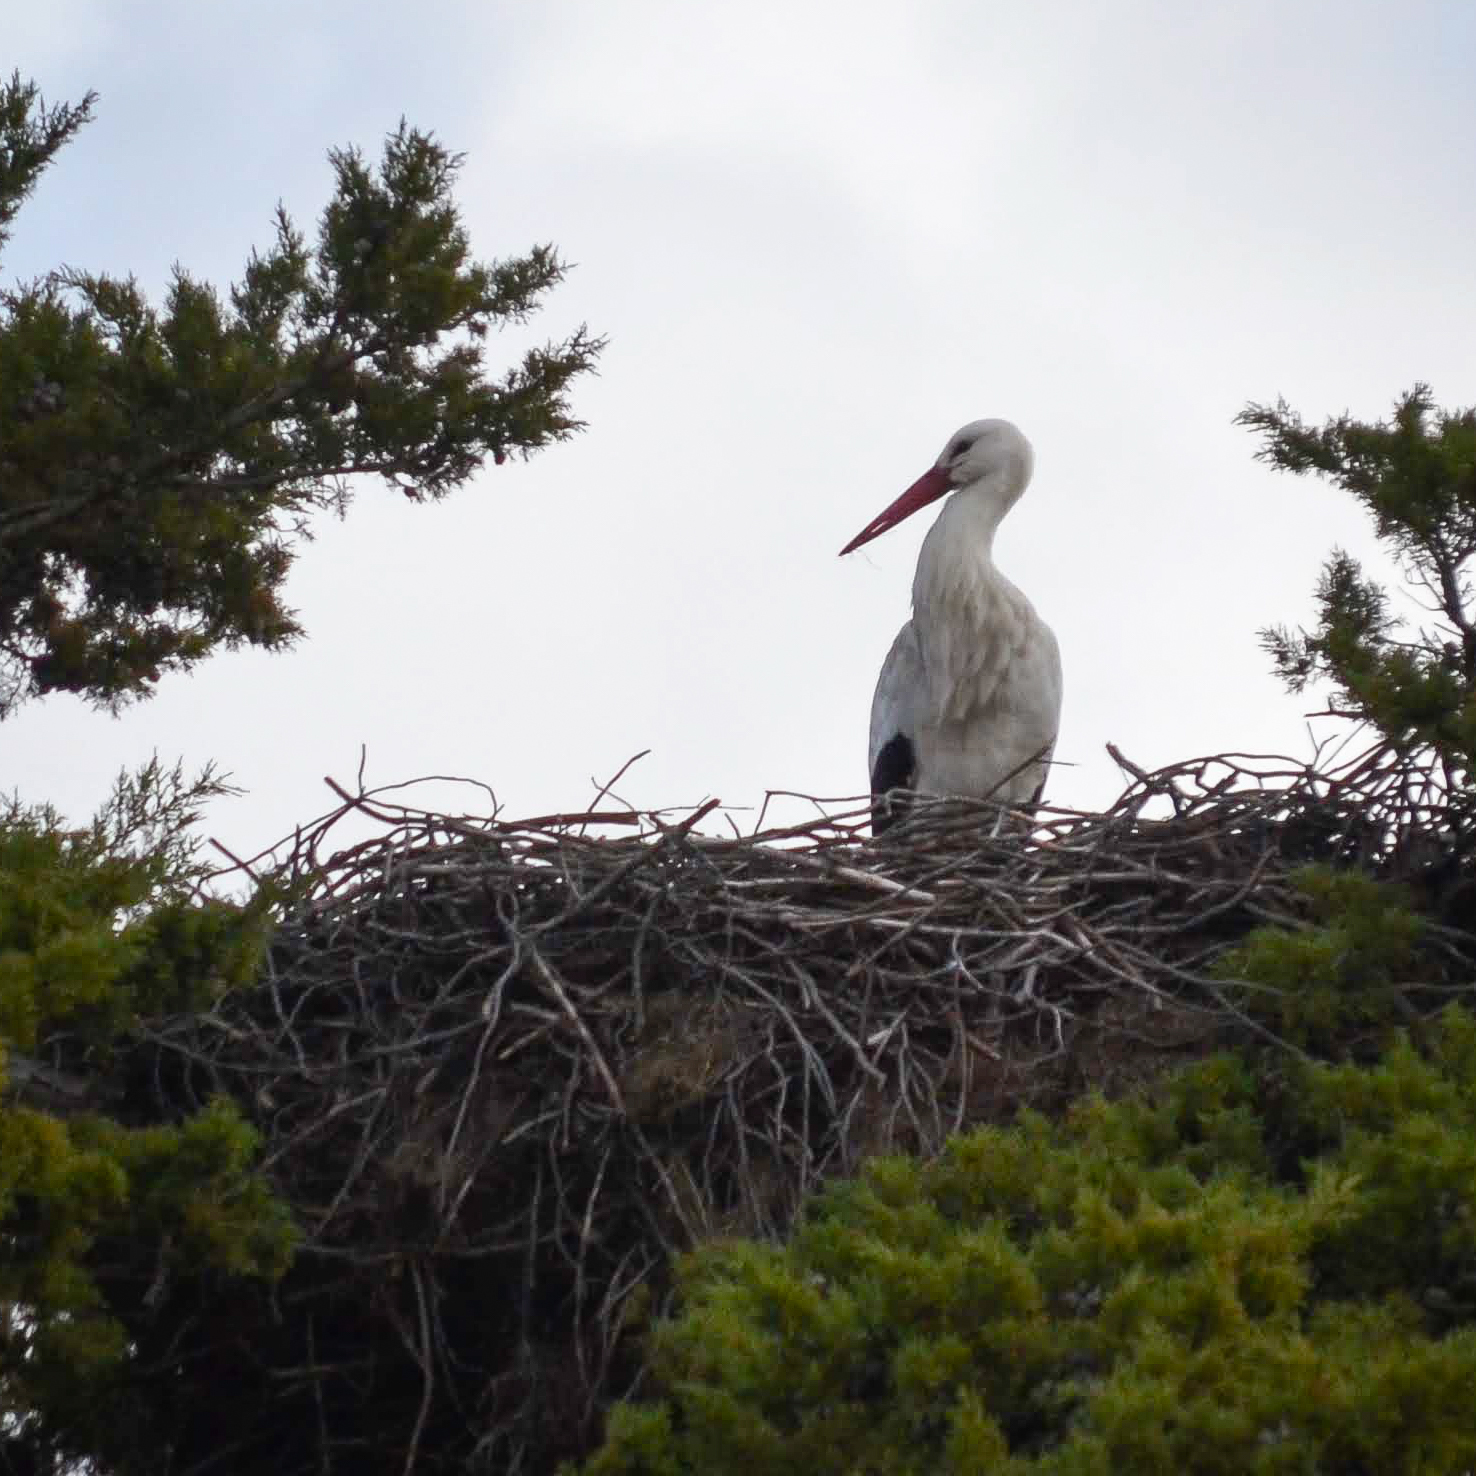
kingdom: Animalia
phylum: Chordata
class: Aves
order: Ciconiiformes
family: Ciconiidae
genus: Ciconia
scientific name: Ciconia ciconia
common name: White stork
